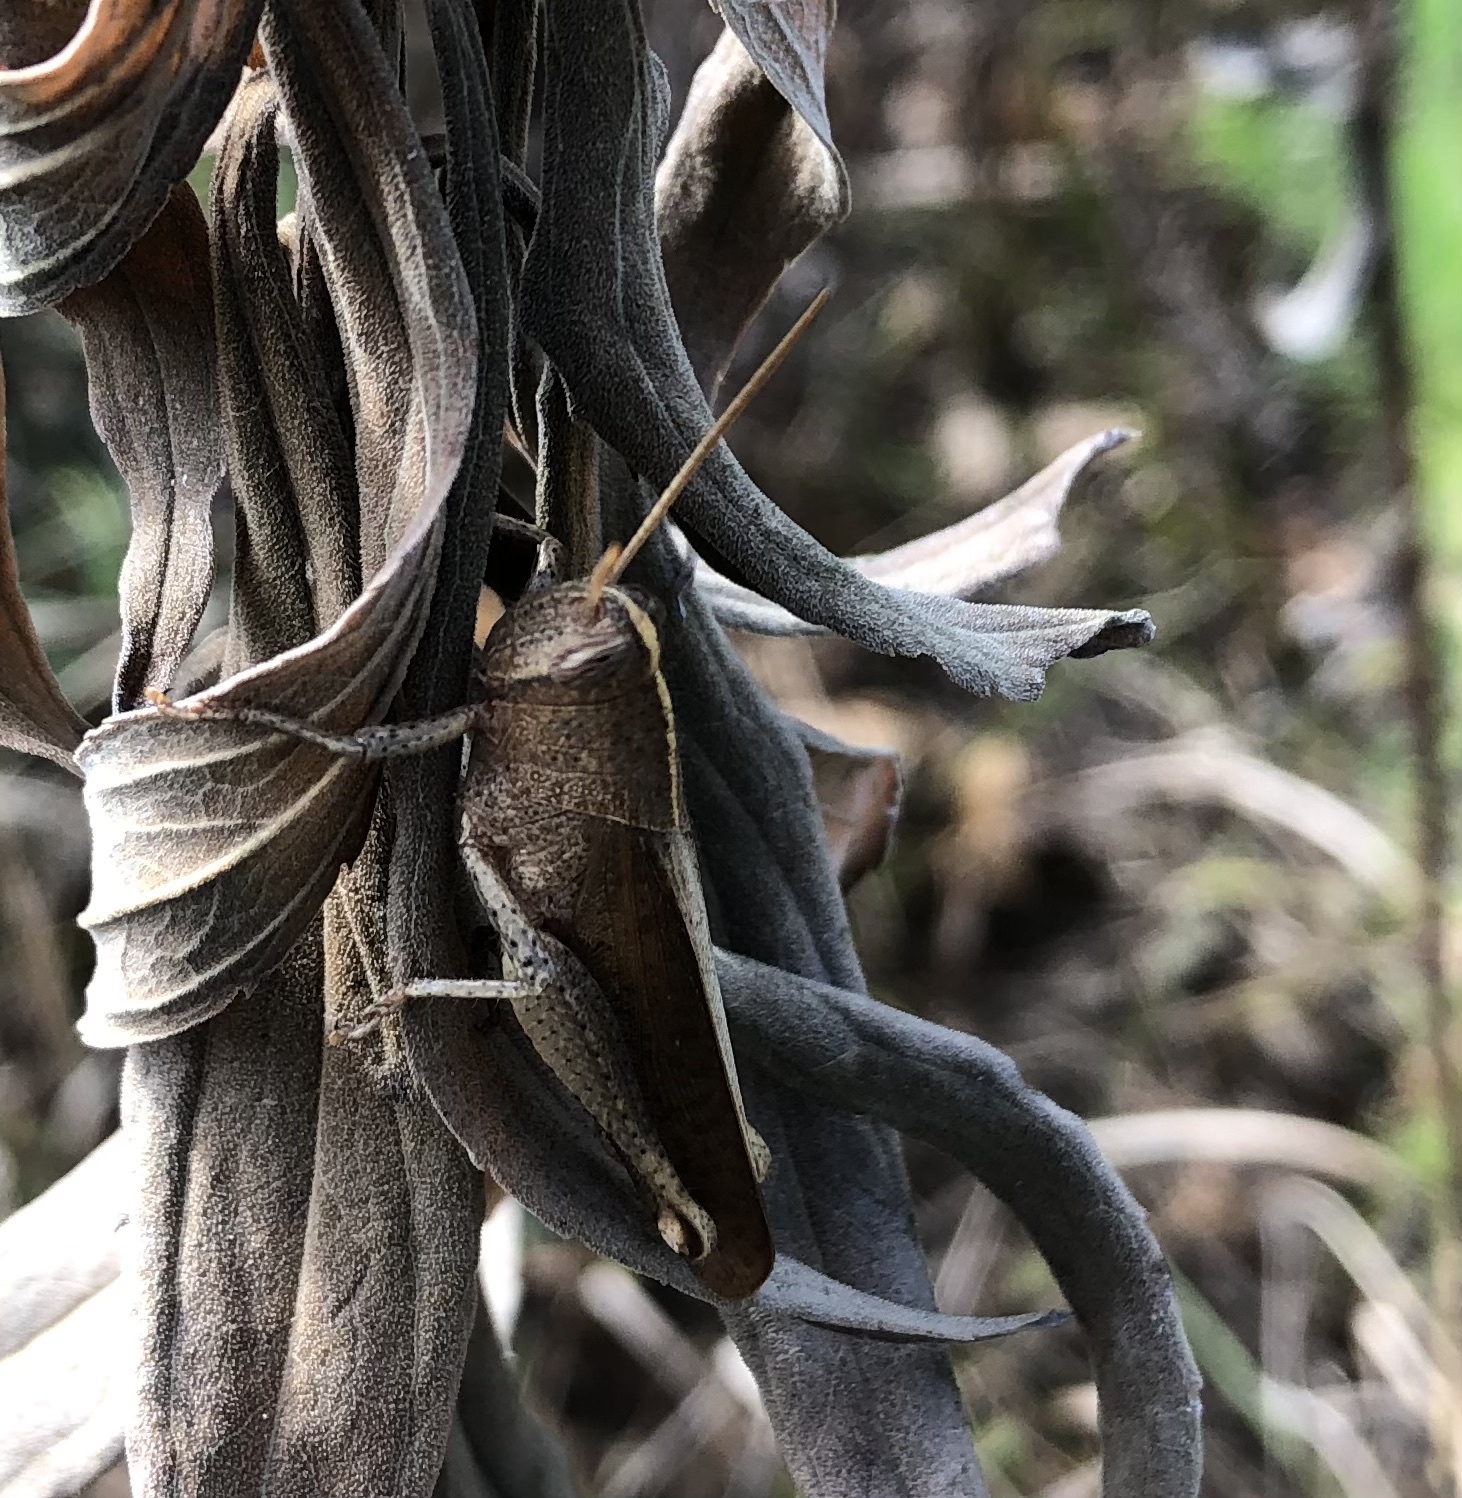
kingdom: Animalia
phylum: Arthropoda
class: Insecta
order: Orthoptera
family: Acrididae
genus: Schistocerca
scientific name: Schistocerca damnifica
